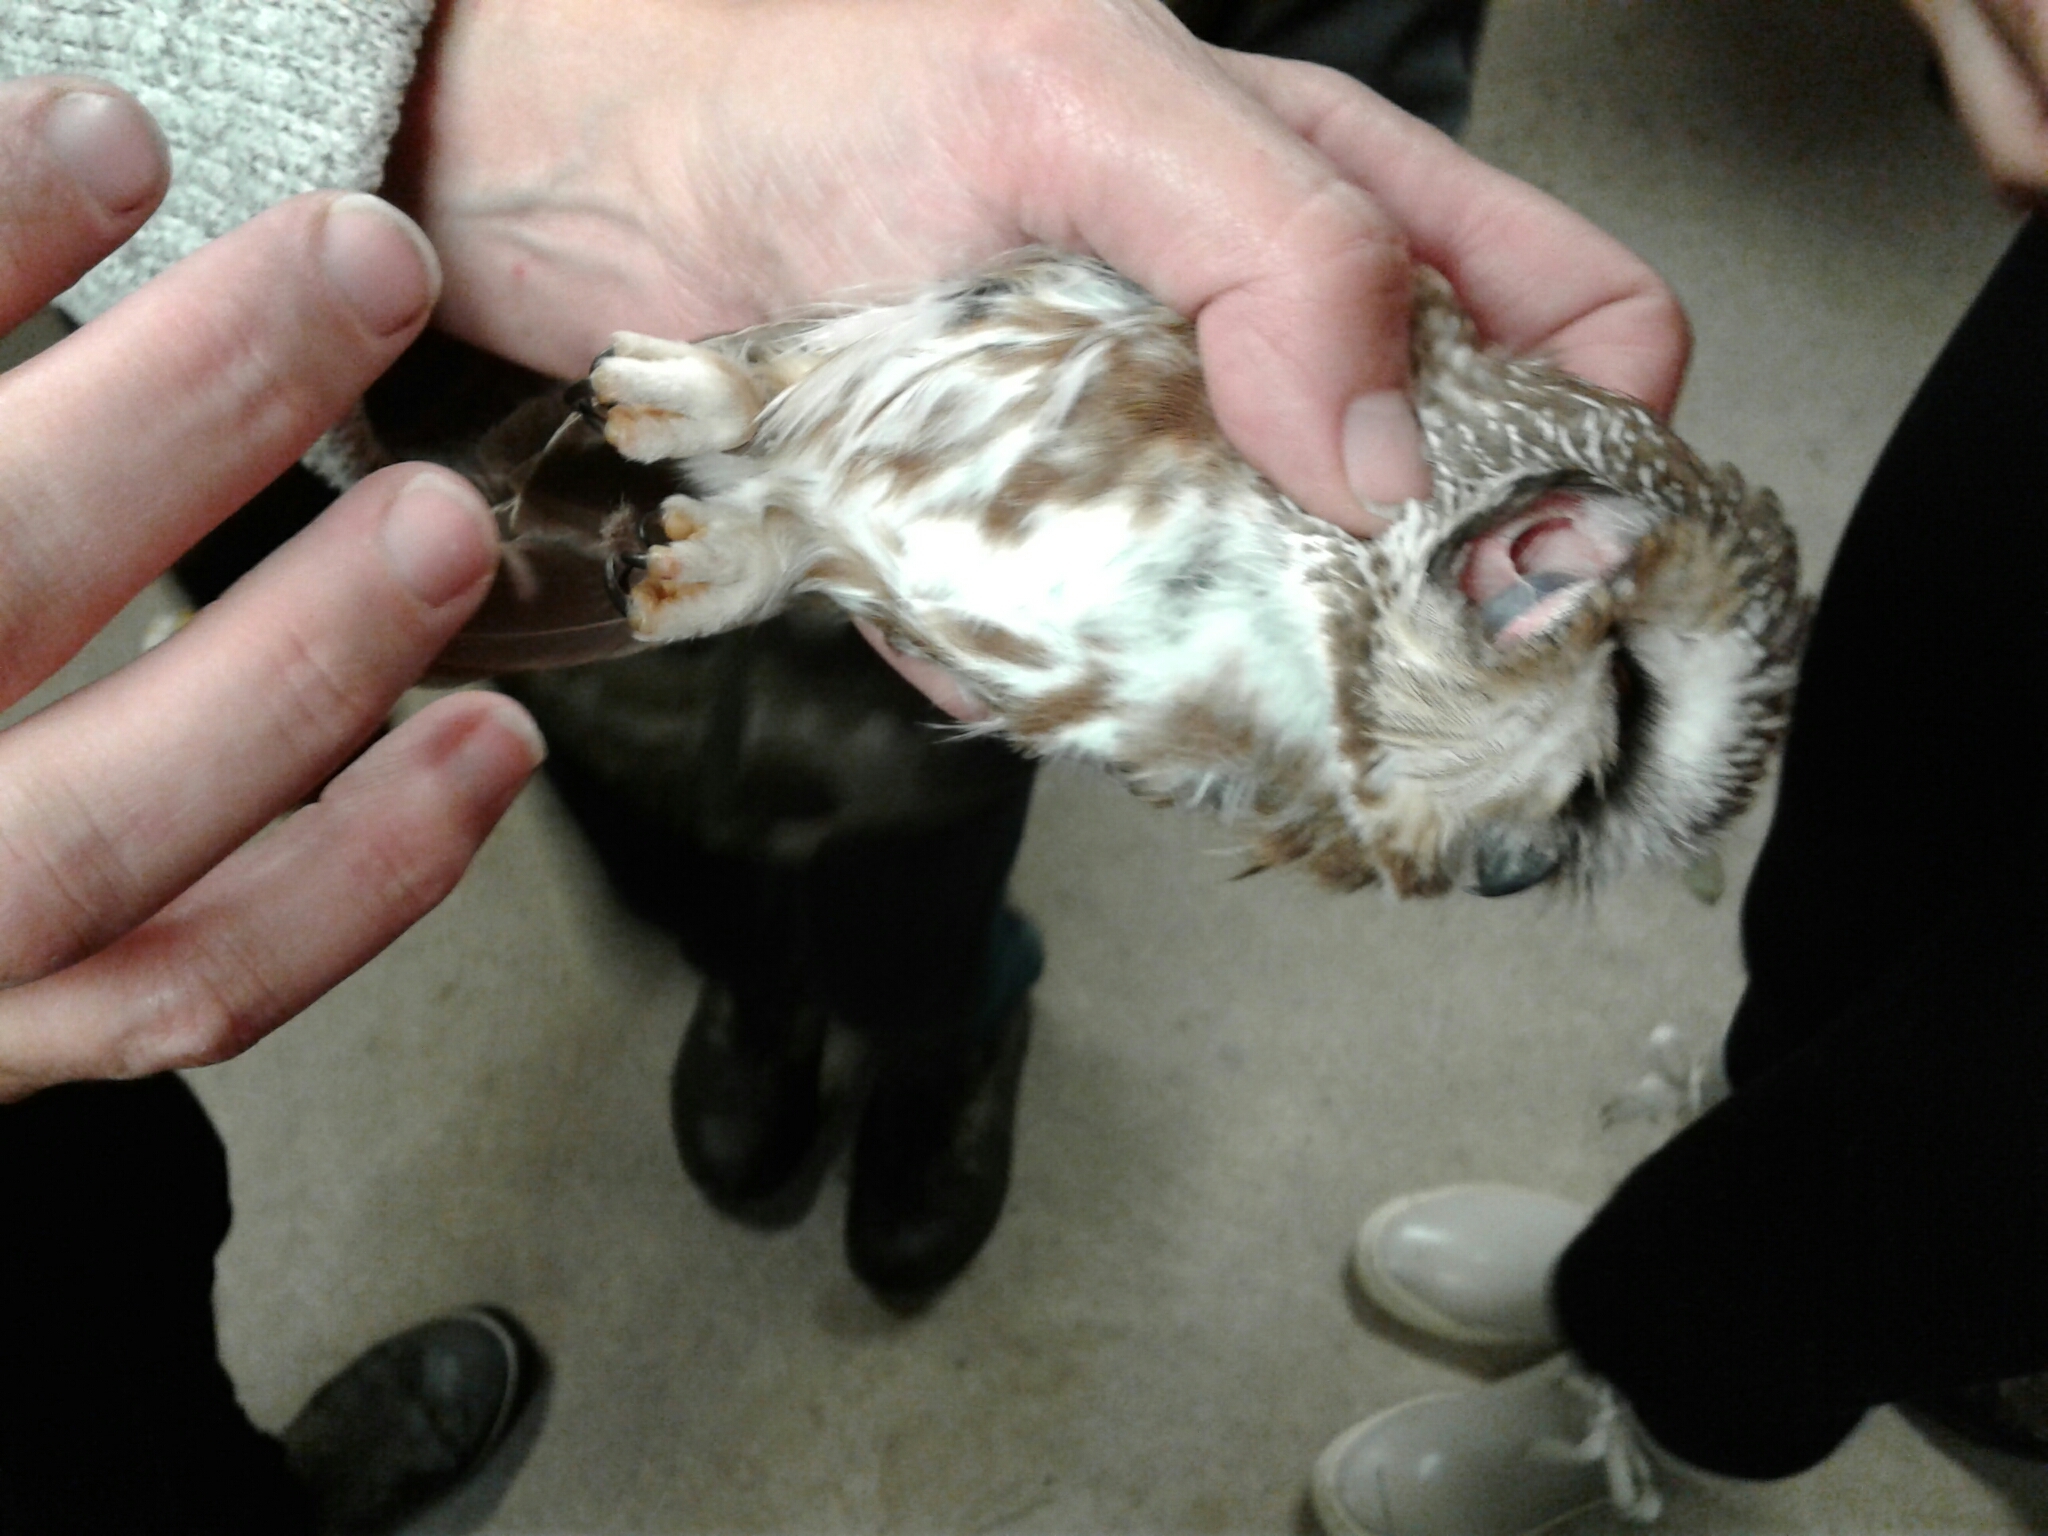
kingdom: Animalia
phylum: Chordata
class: Aves
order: Strigiformes
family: Strigidae
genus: Aegolius
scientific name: Aegolius acadicus
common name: Northern saw-whet owl
